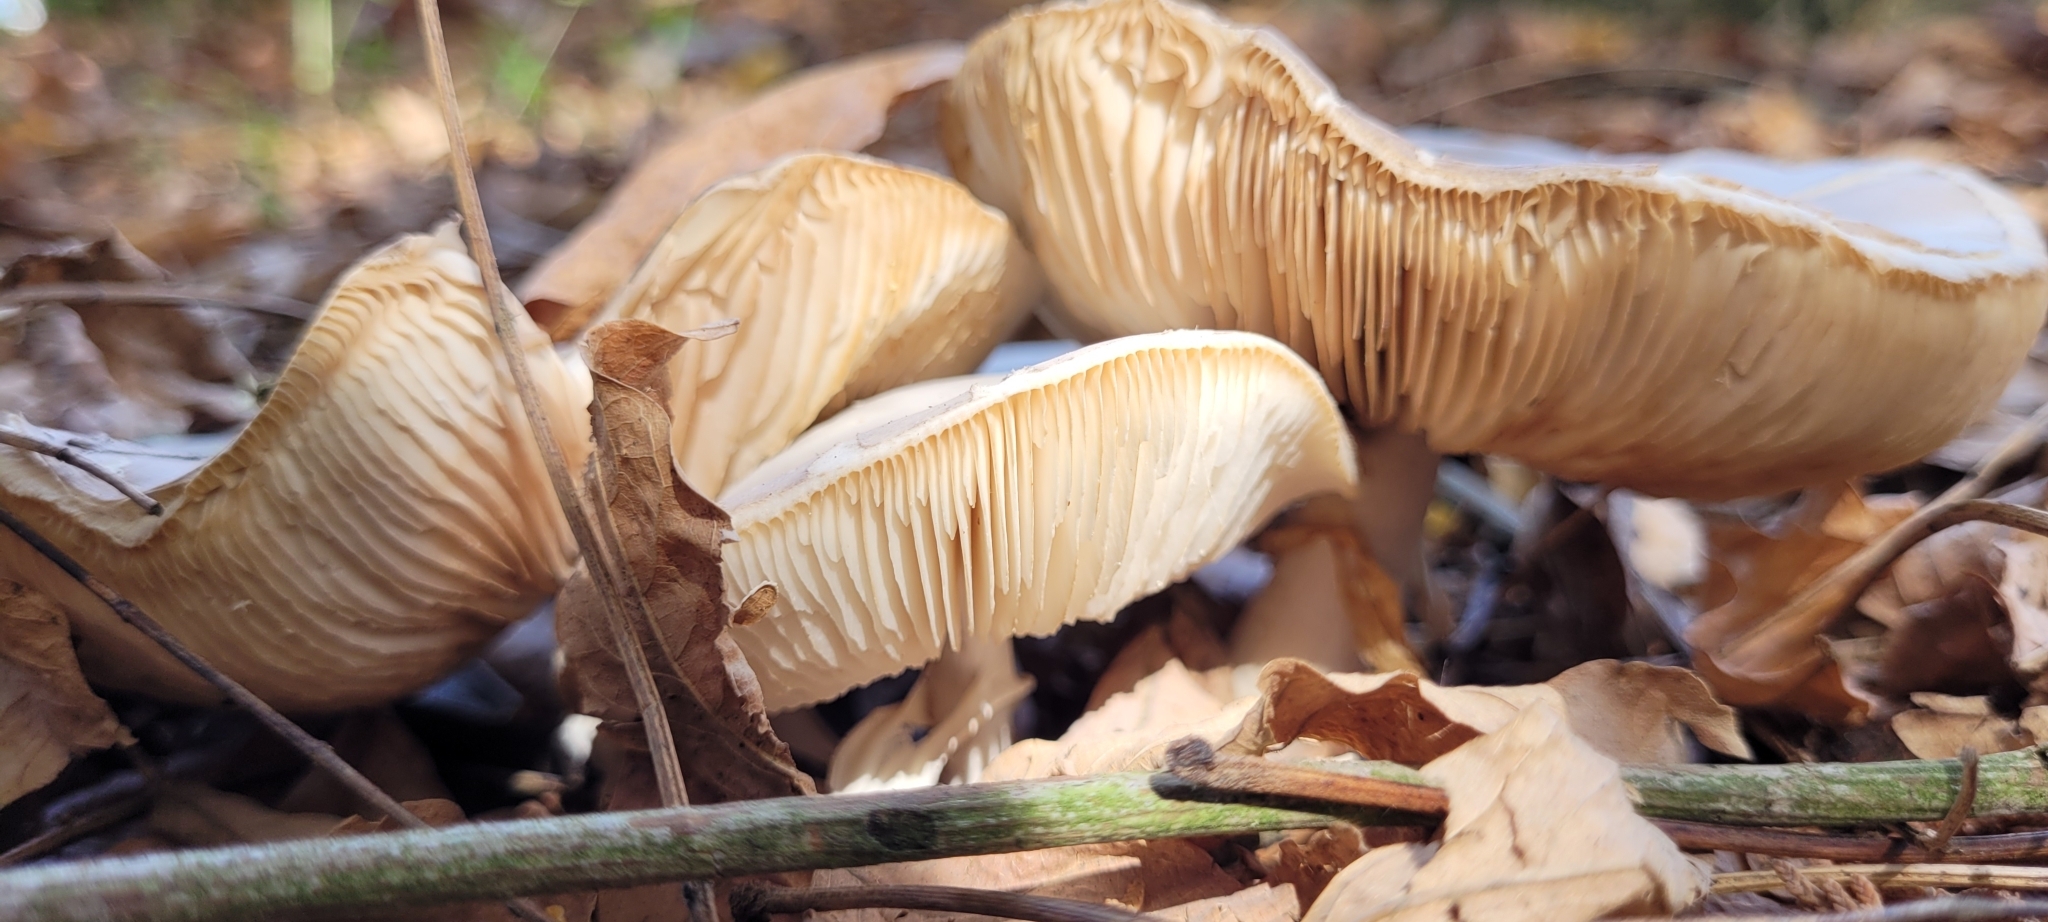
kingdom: Fungi
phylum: Basidiomycota
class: Agaricomycetes
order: Agaricales
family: Omphalotaceae
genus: Rhodocollybia
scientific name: Rhodocollybia butyracea
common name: Butter cap
